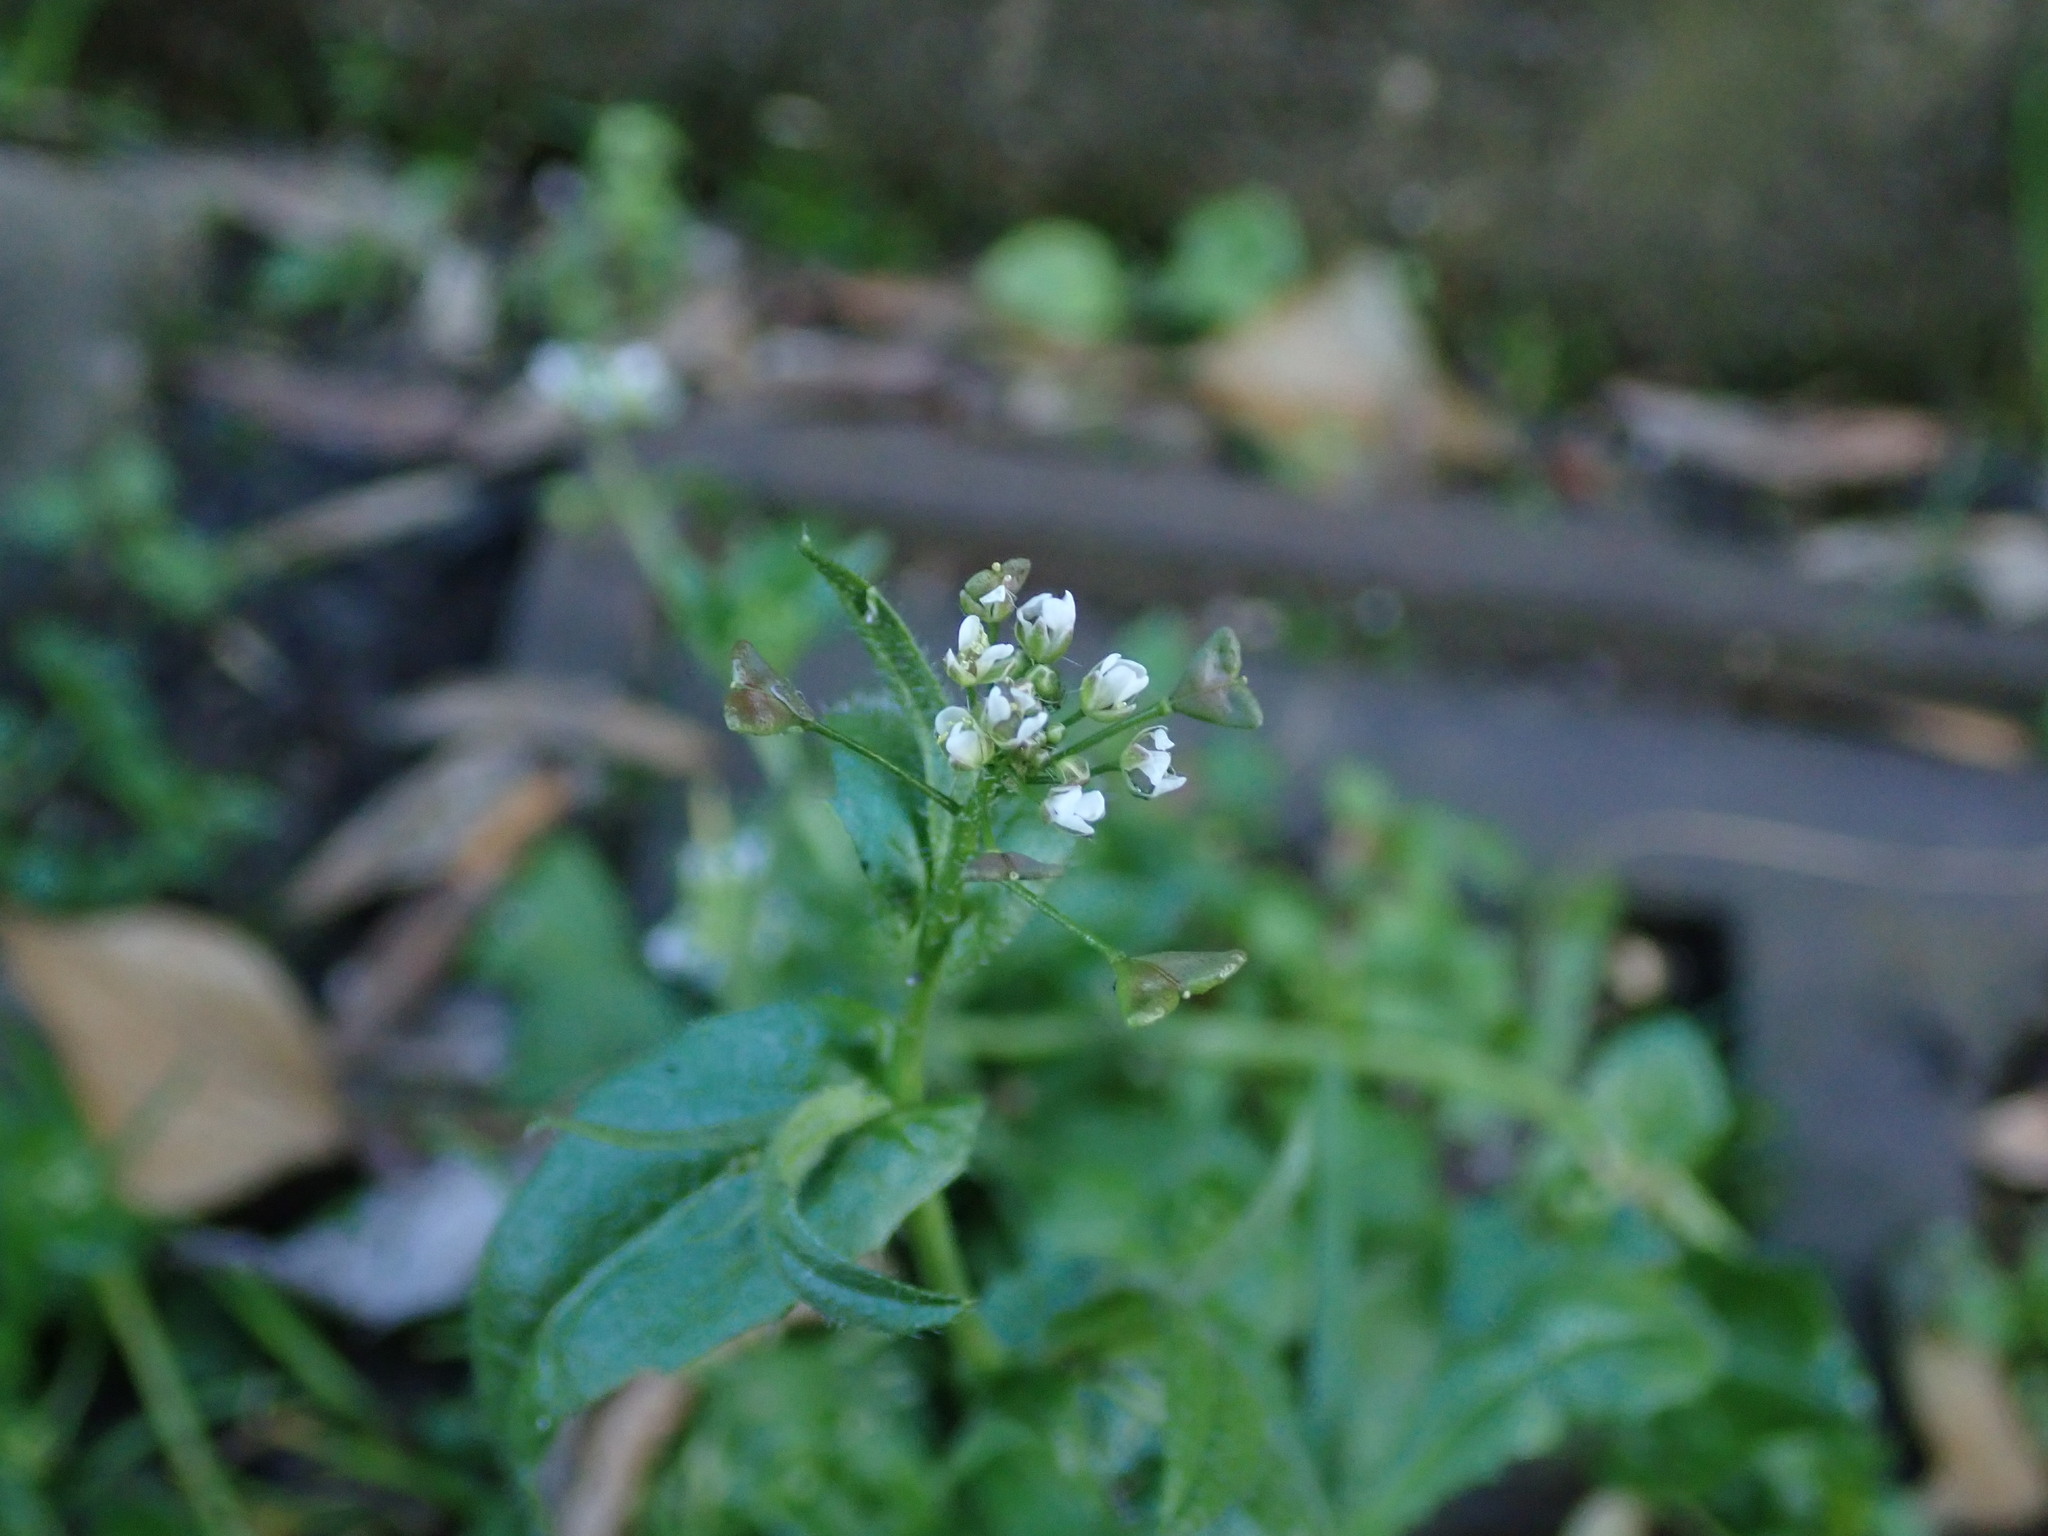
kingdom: Plantae
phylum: Tracheophyta
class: Magnoliopsida
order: Brassicales
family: Brassicaceae
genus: Capsella
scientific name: Capsella bursa-pastoris
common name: Shepherd's purse
